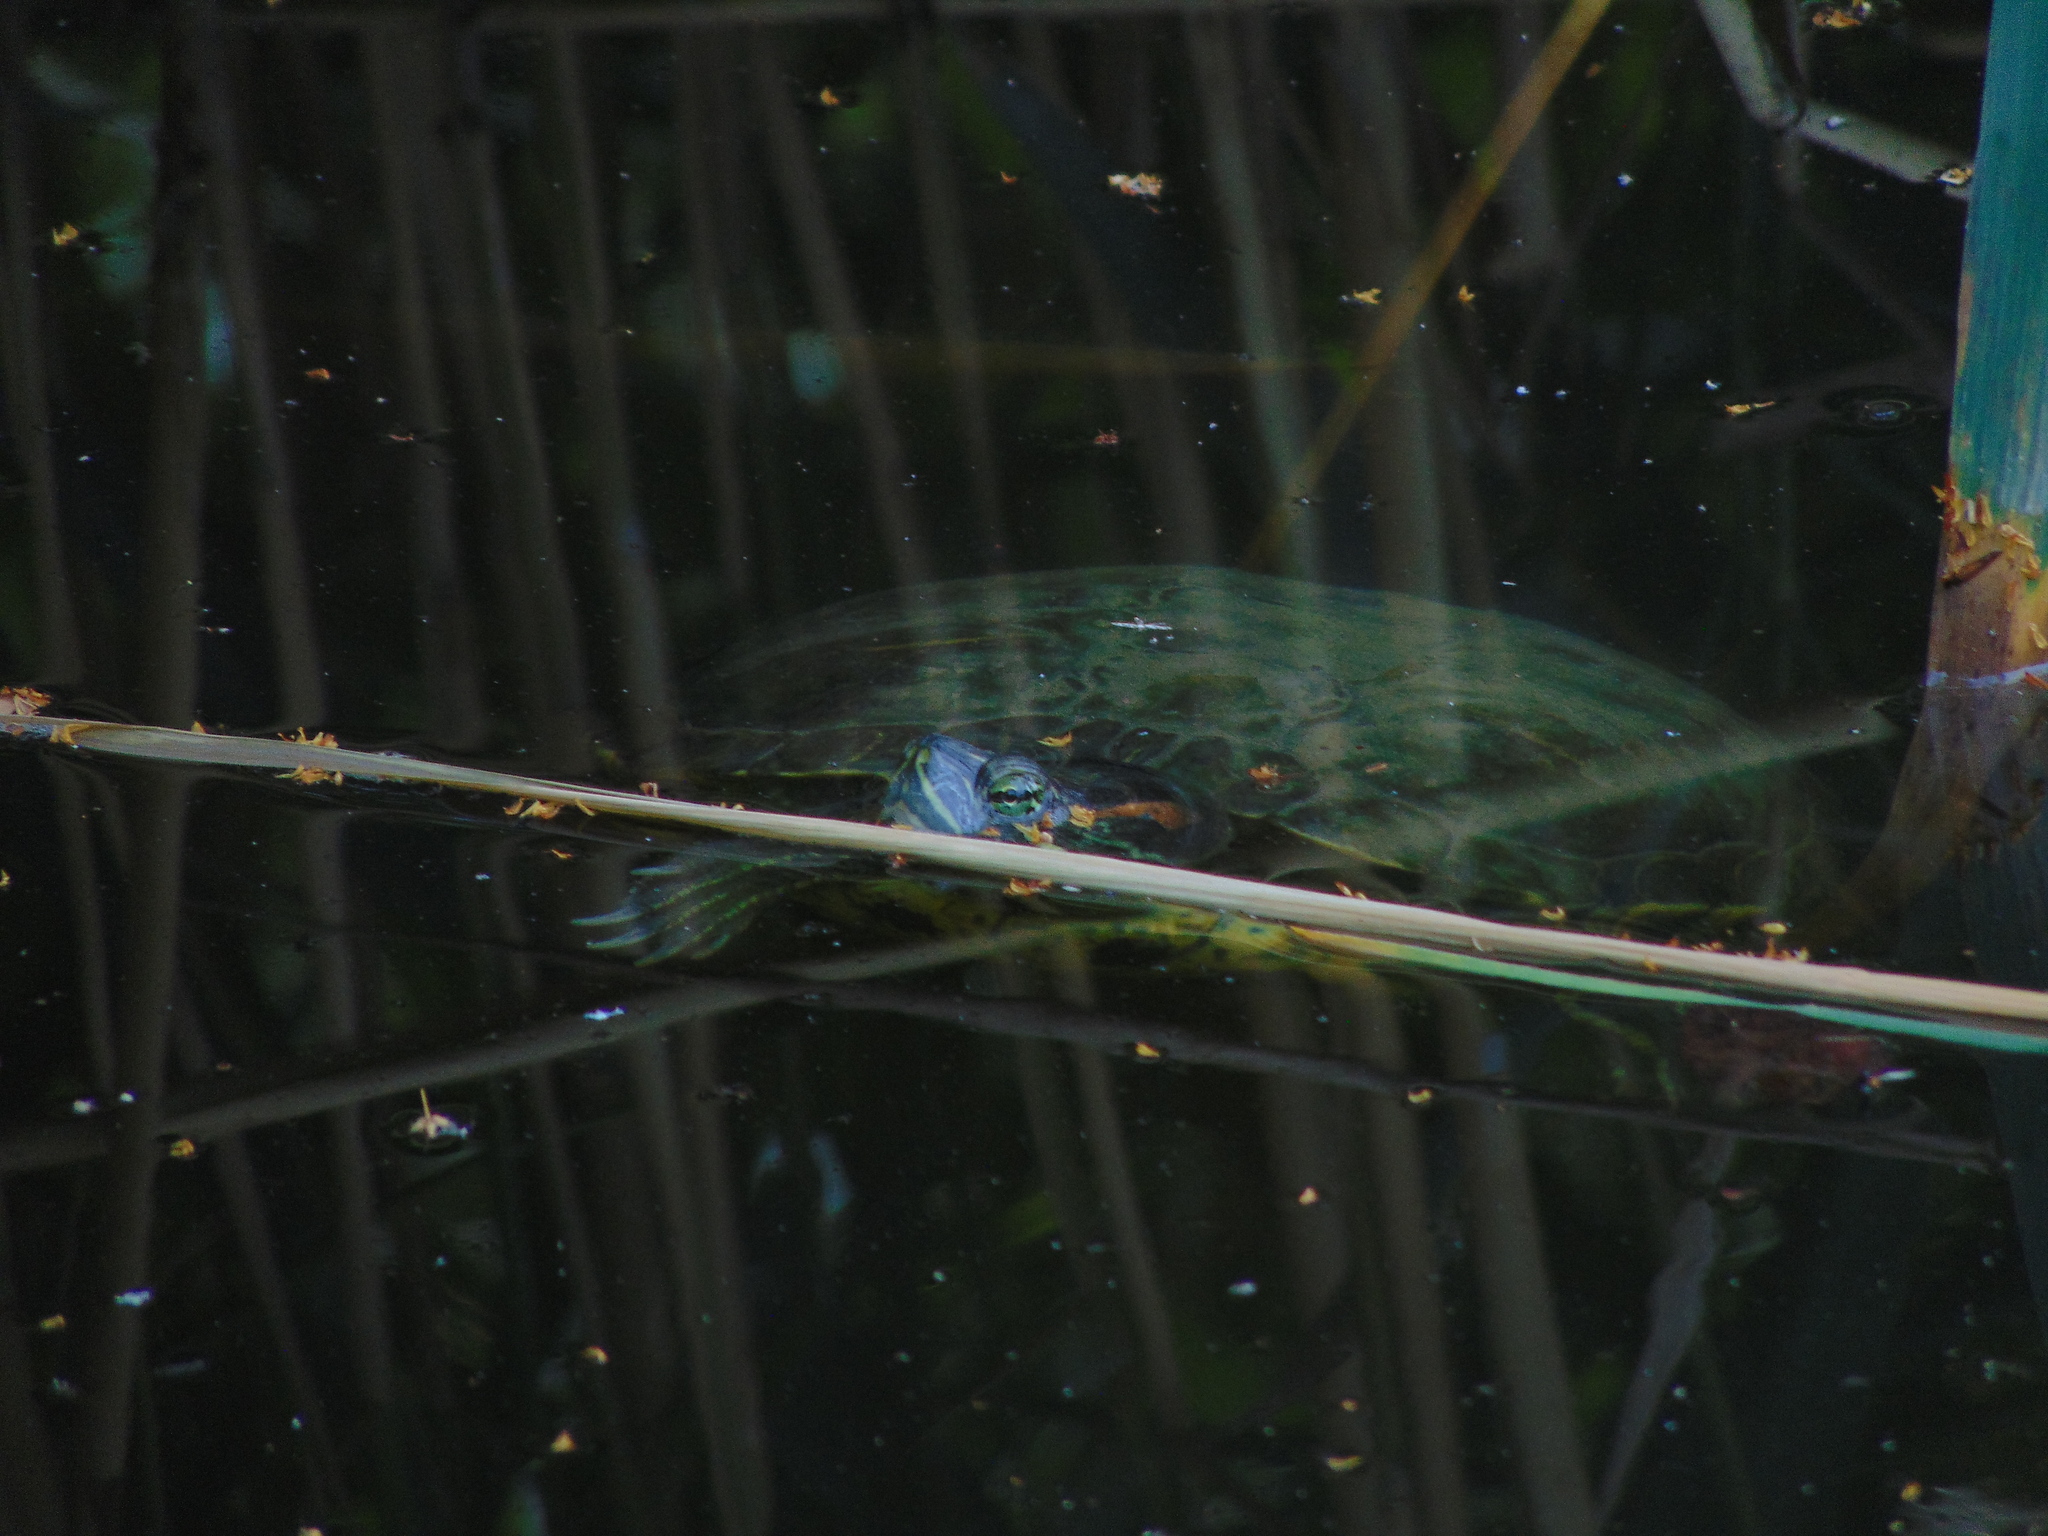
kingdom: Animalia
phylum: Chordata
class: Testudines
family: Emydidae
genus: Trachemys
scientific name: Trachemys scripta
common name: Slider
